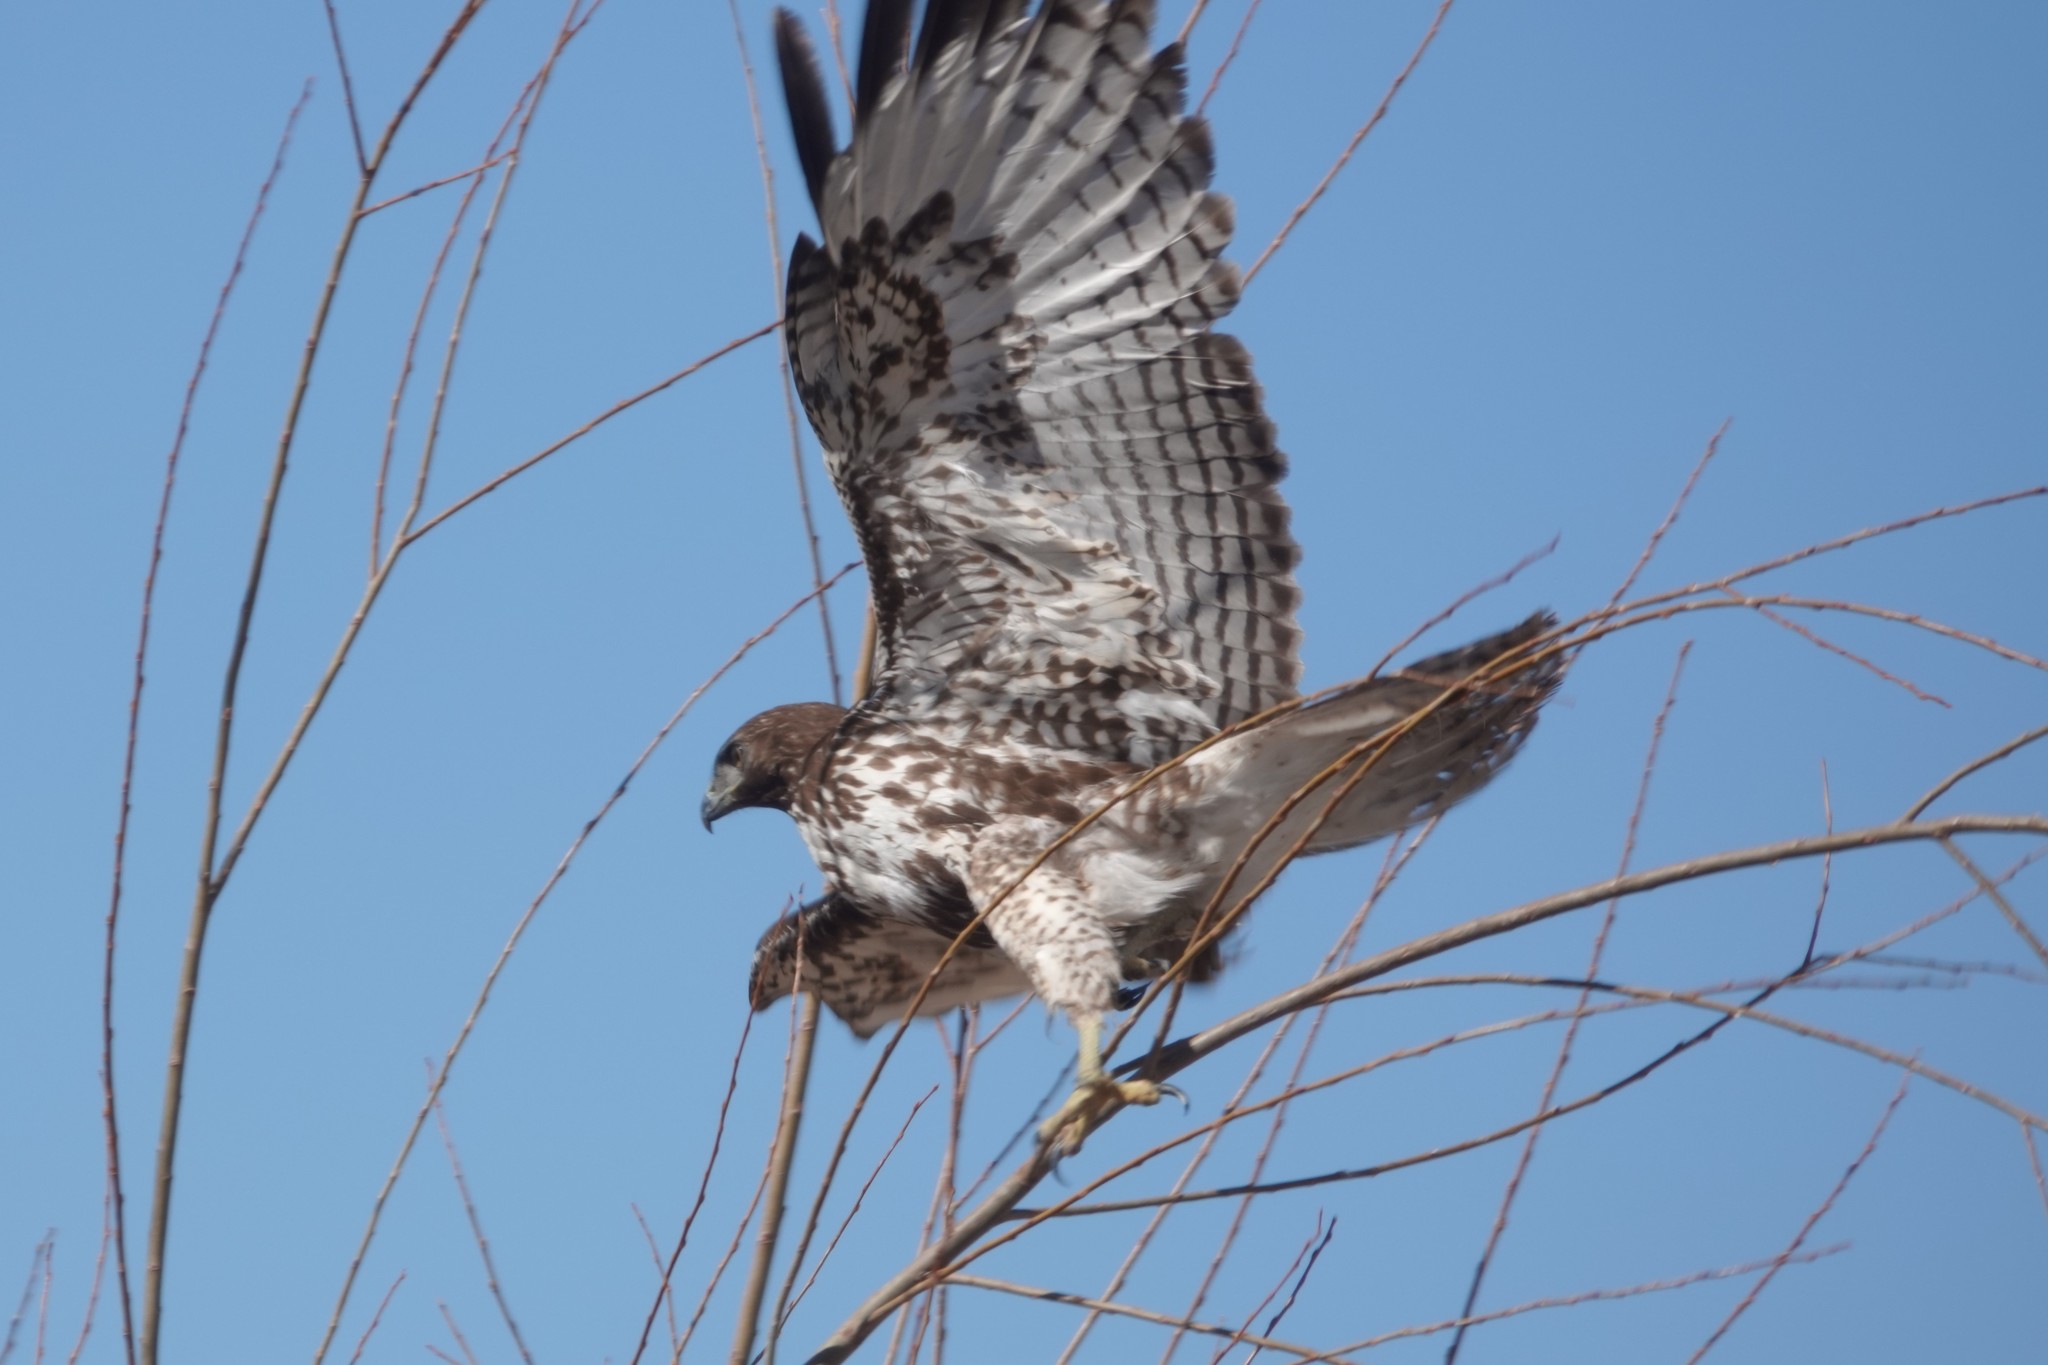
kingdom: Animalia
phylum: Chordata
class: Aves
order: Accipitriformes
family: Accipitridae
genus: Buteo
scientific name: Buteo jamaicensis
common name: Red-tailed hawk
